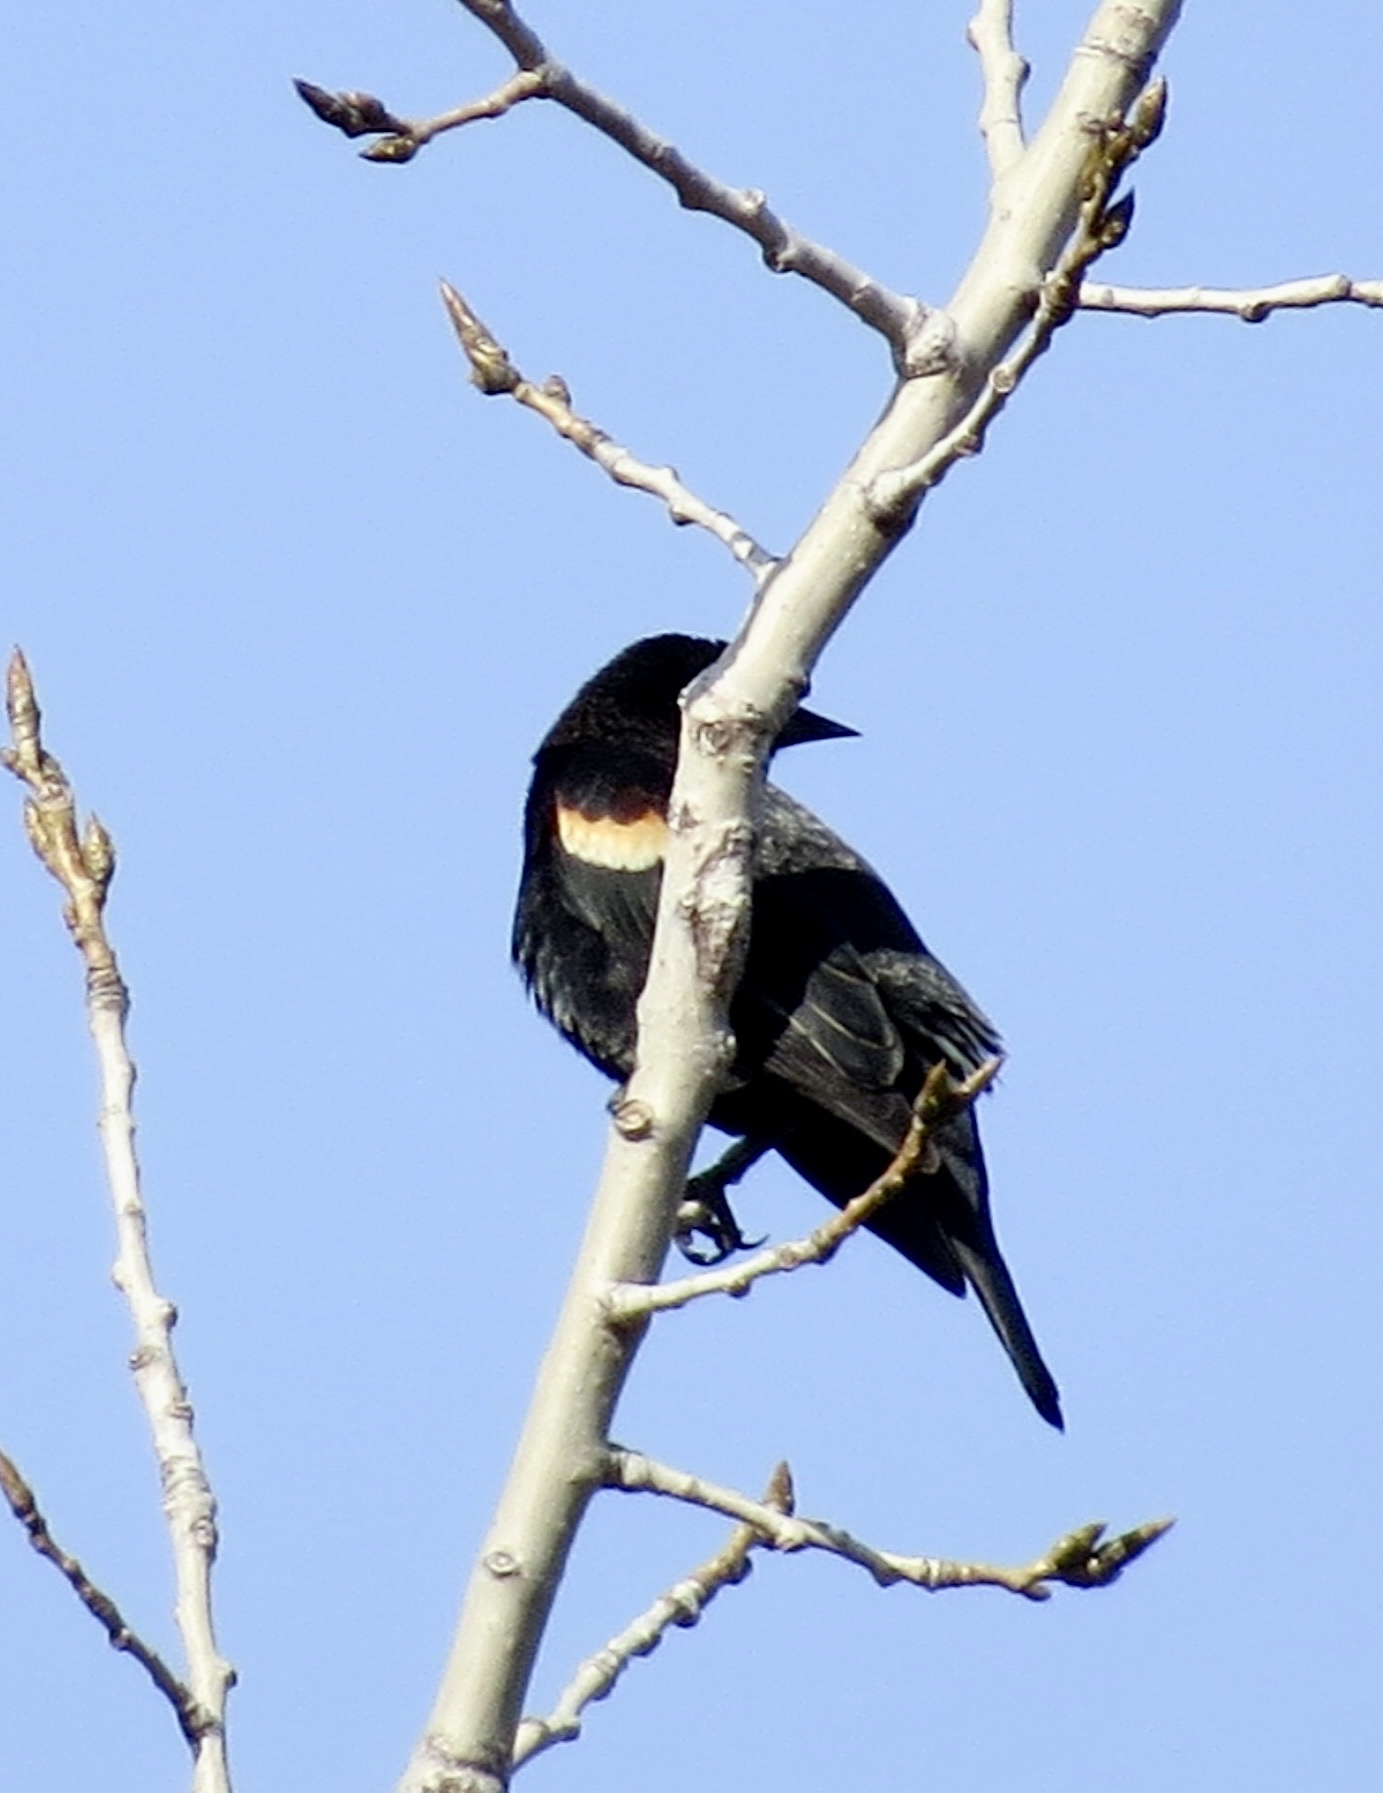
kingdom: Animalia
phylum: Chordata
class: Aves
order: Passeriformes
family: Icteridae
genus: Agelaius
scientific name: Agelaius phoeniceus
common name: Red-winged blackbird
